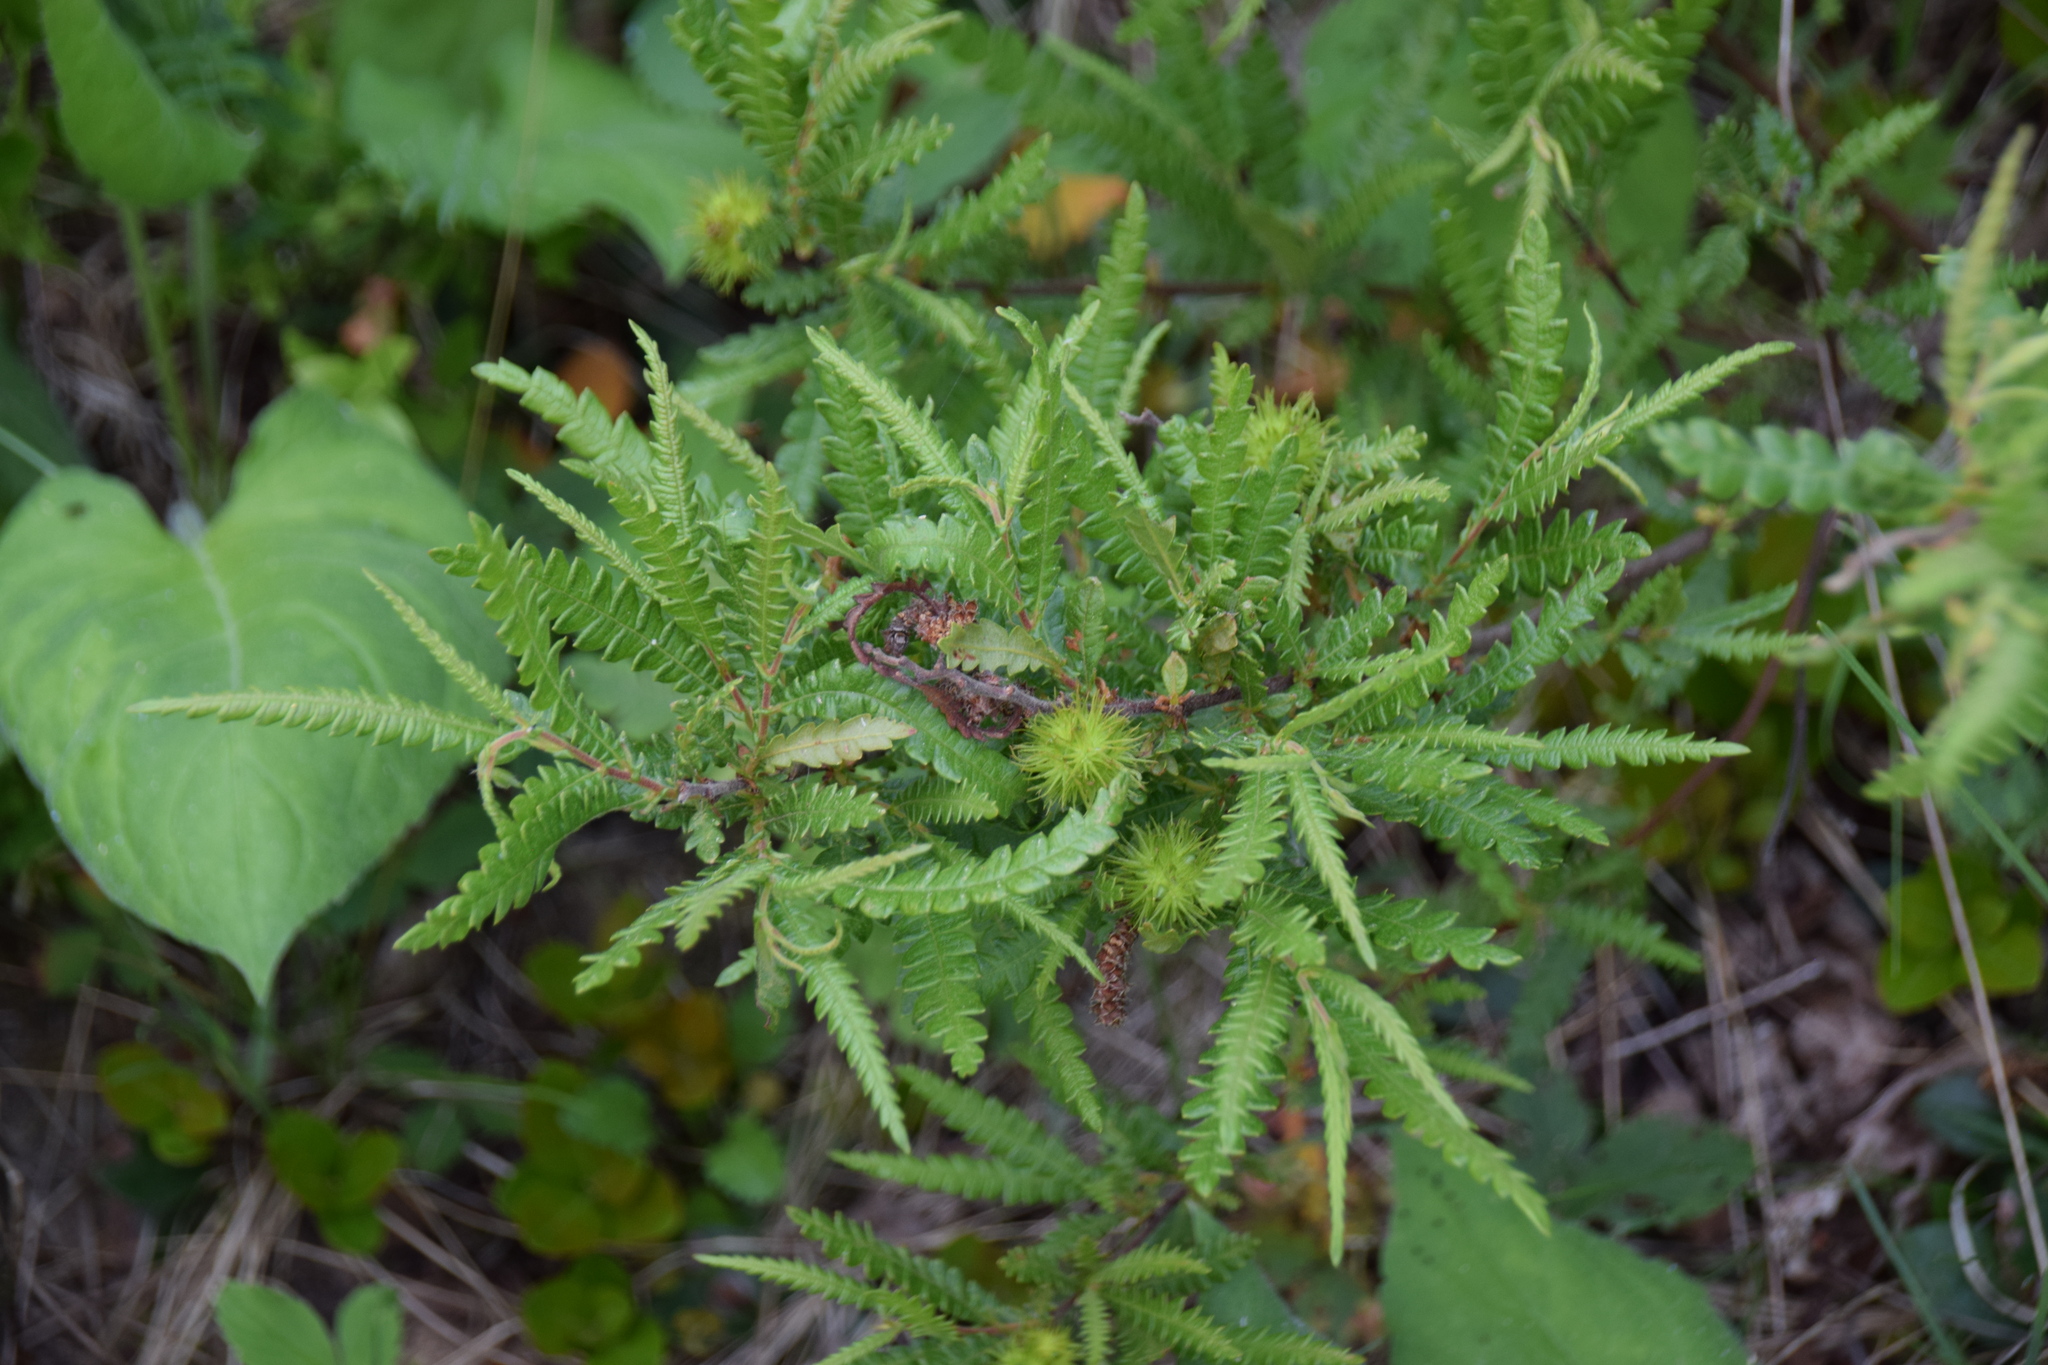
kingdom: Plantae
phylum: Tracheophyta
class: Magnoliopsida
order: Fagales
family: Myricaceae
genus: Comptonia
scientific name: Comptonia peregrina
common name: Sweet-fern
